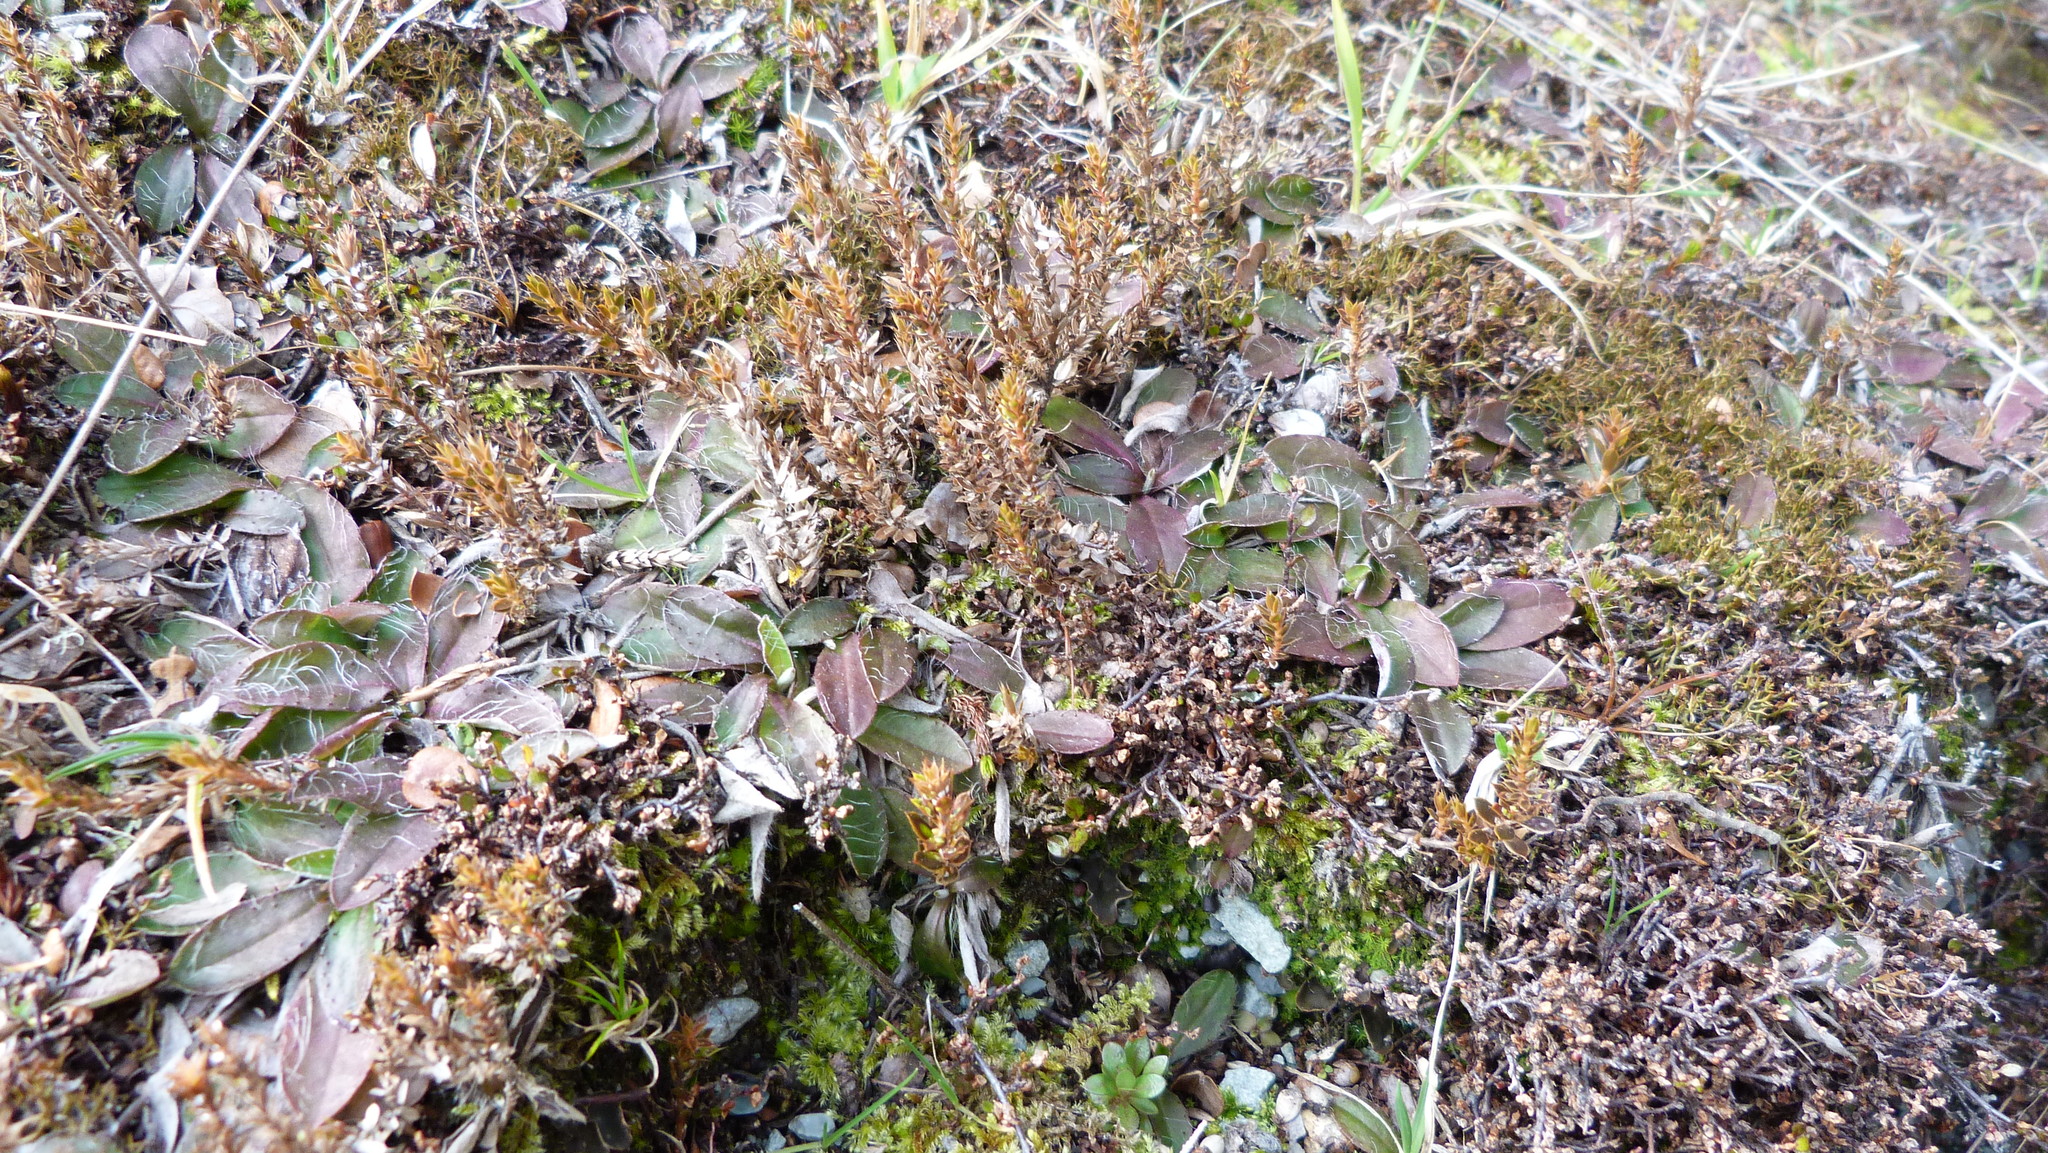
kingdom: Plantae
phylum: Tracheophyta
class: Magnoliopsida
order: Ericales
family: Ericaceae
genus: Styphelia
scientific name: Styphelia nesophila
